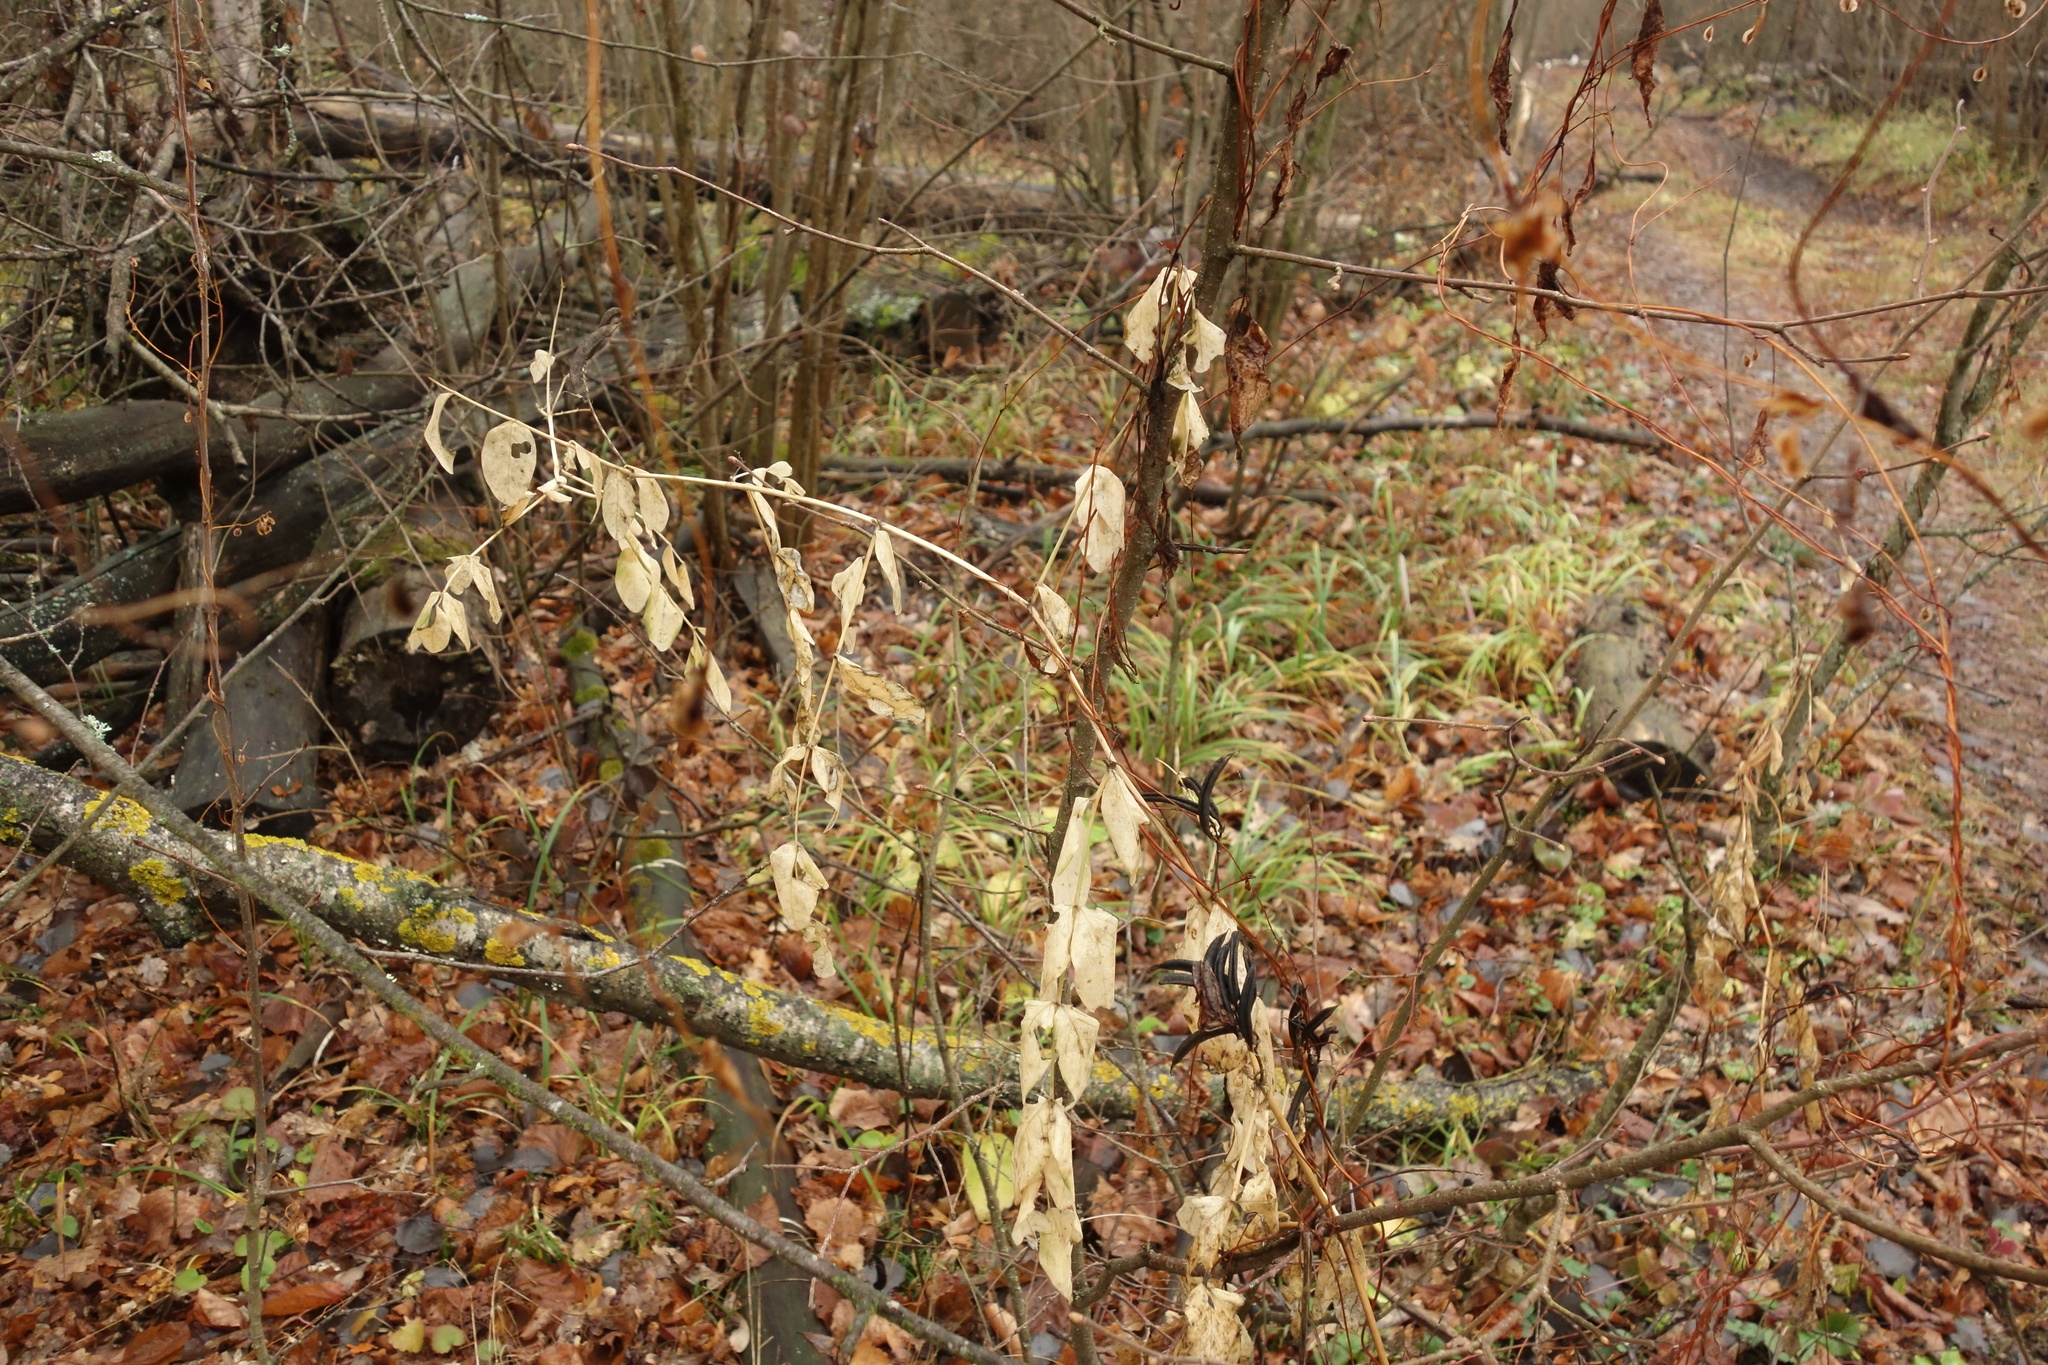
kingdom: Plantae
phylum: Tracheophyta
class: Magnoliopsida
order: Fabales
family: Fabaceae
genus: Astragalus
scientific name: Astragalus glycyphyllos
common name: Wild liquorice
